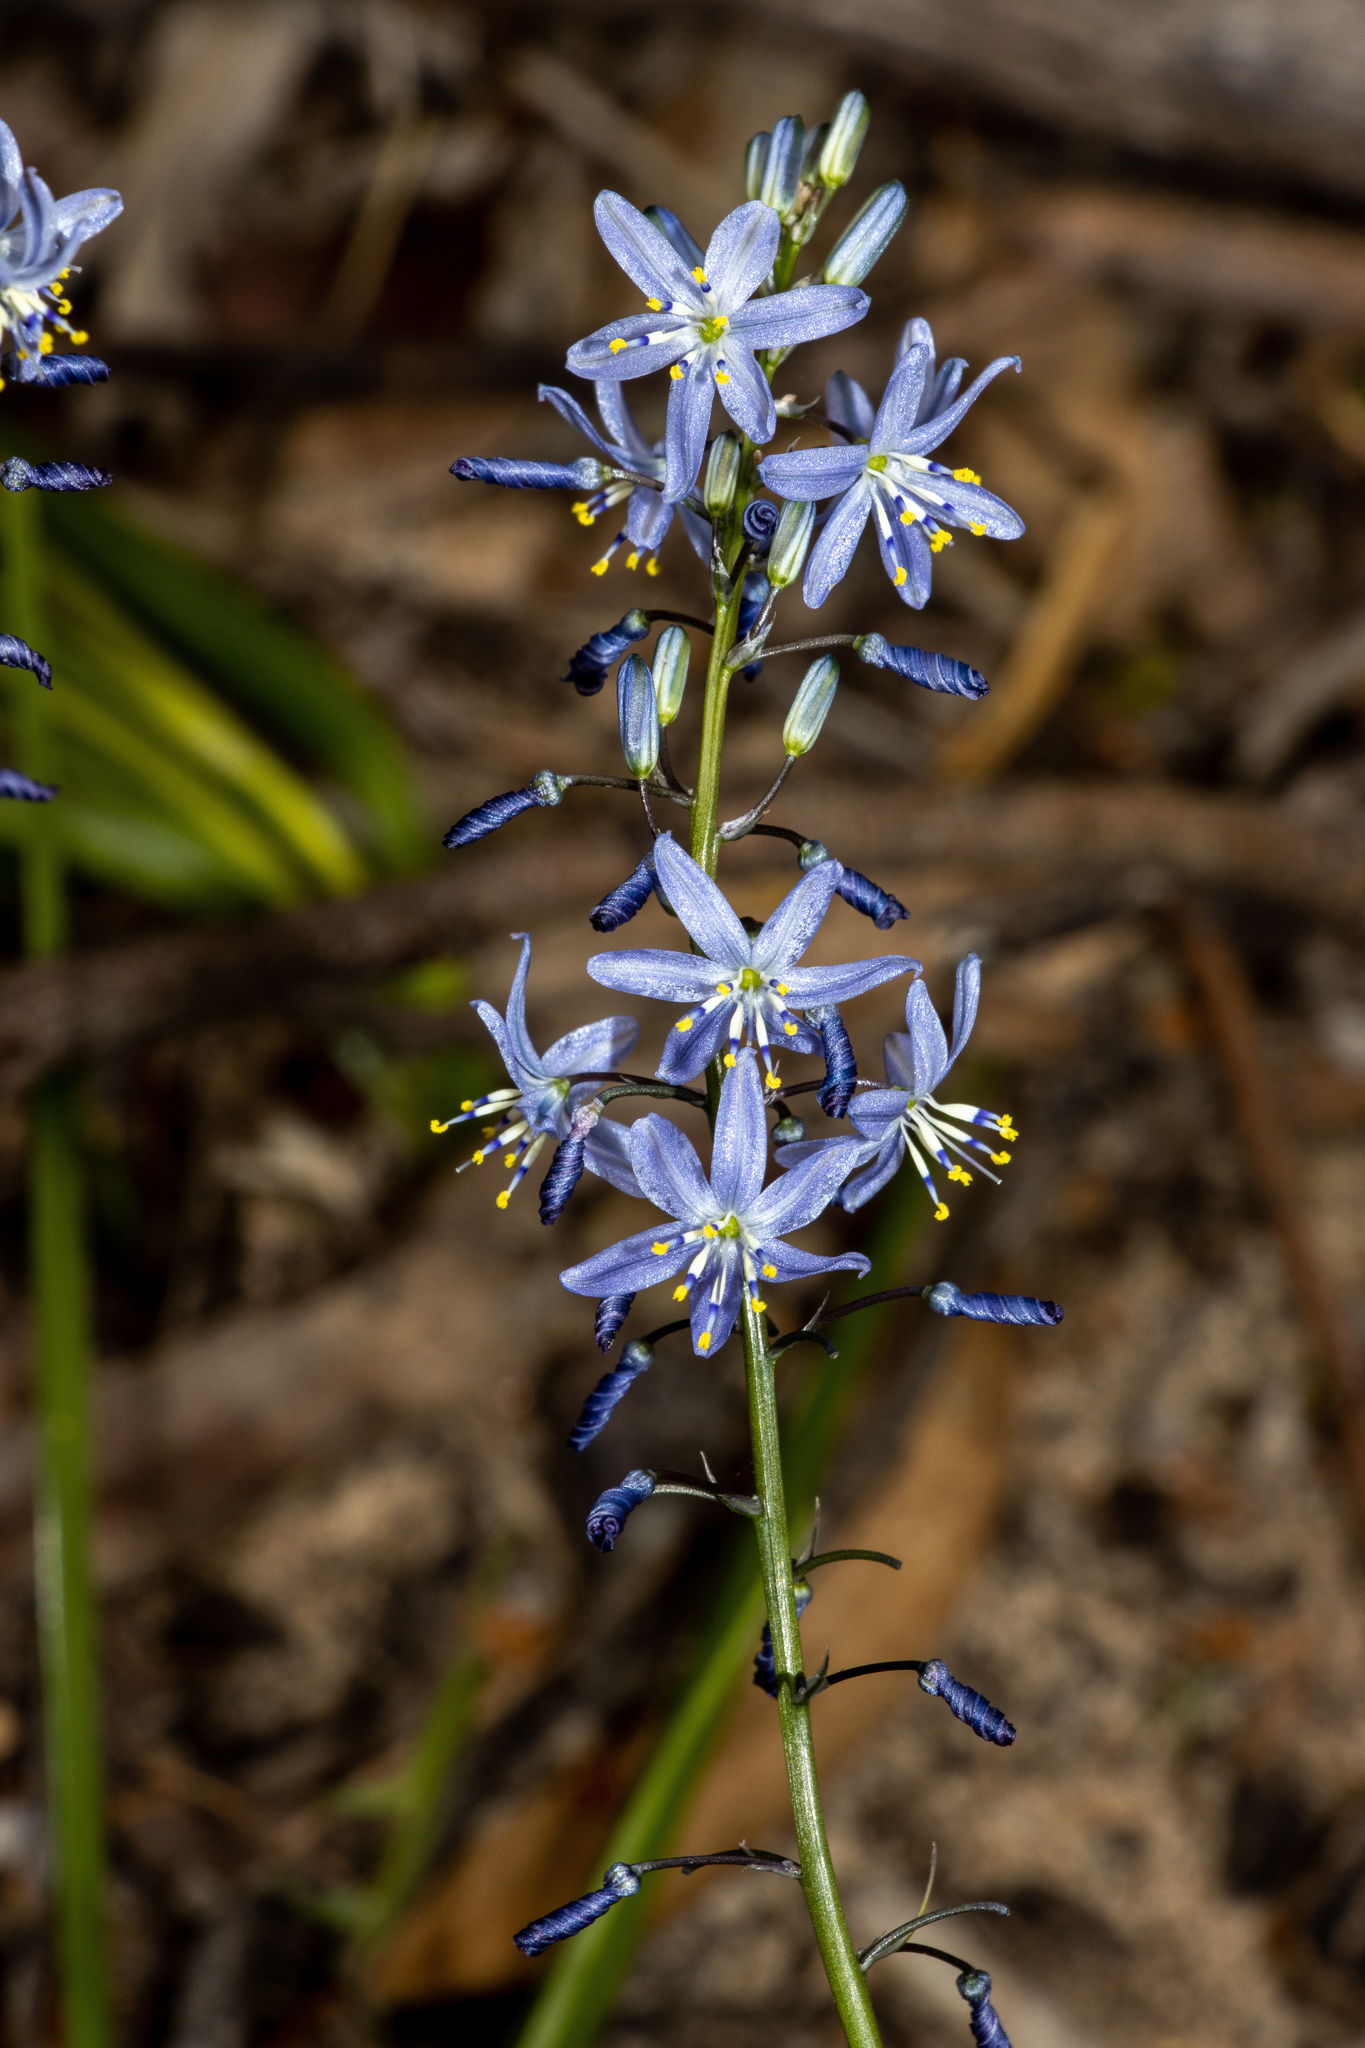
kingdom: Plantae
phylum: Tracheophyta
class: Liliopsida
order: Asparagales
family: Asphodelaceae
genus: Caesia
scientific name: Caesia calliantha
